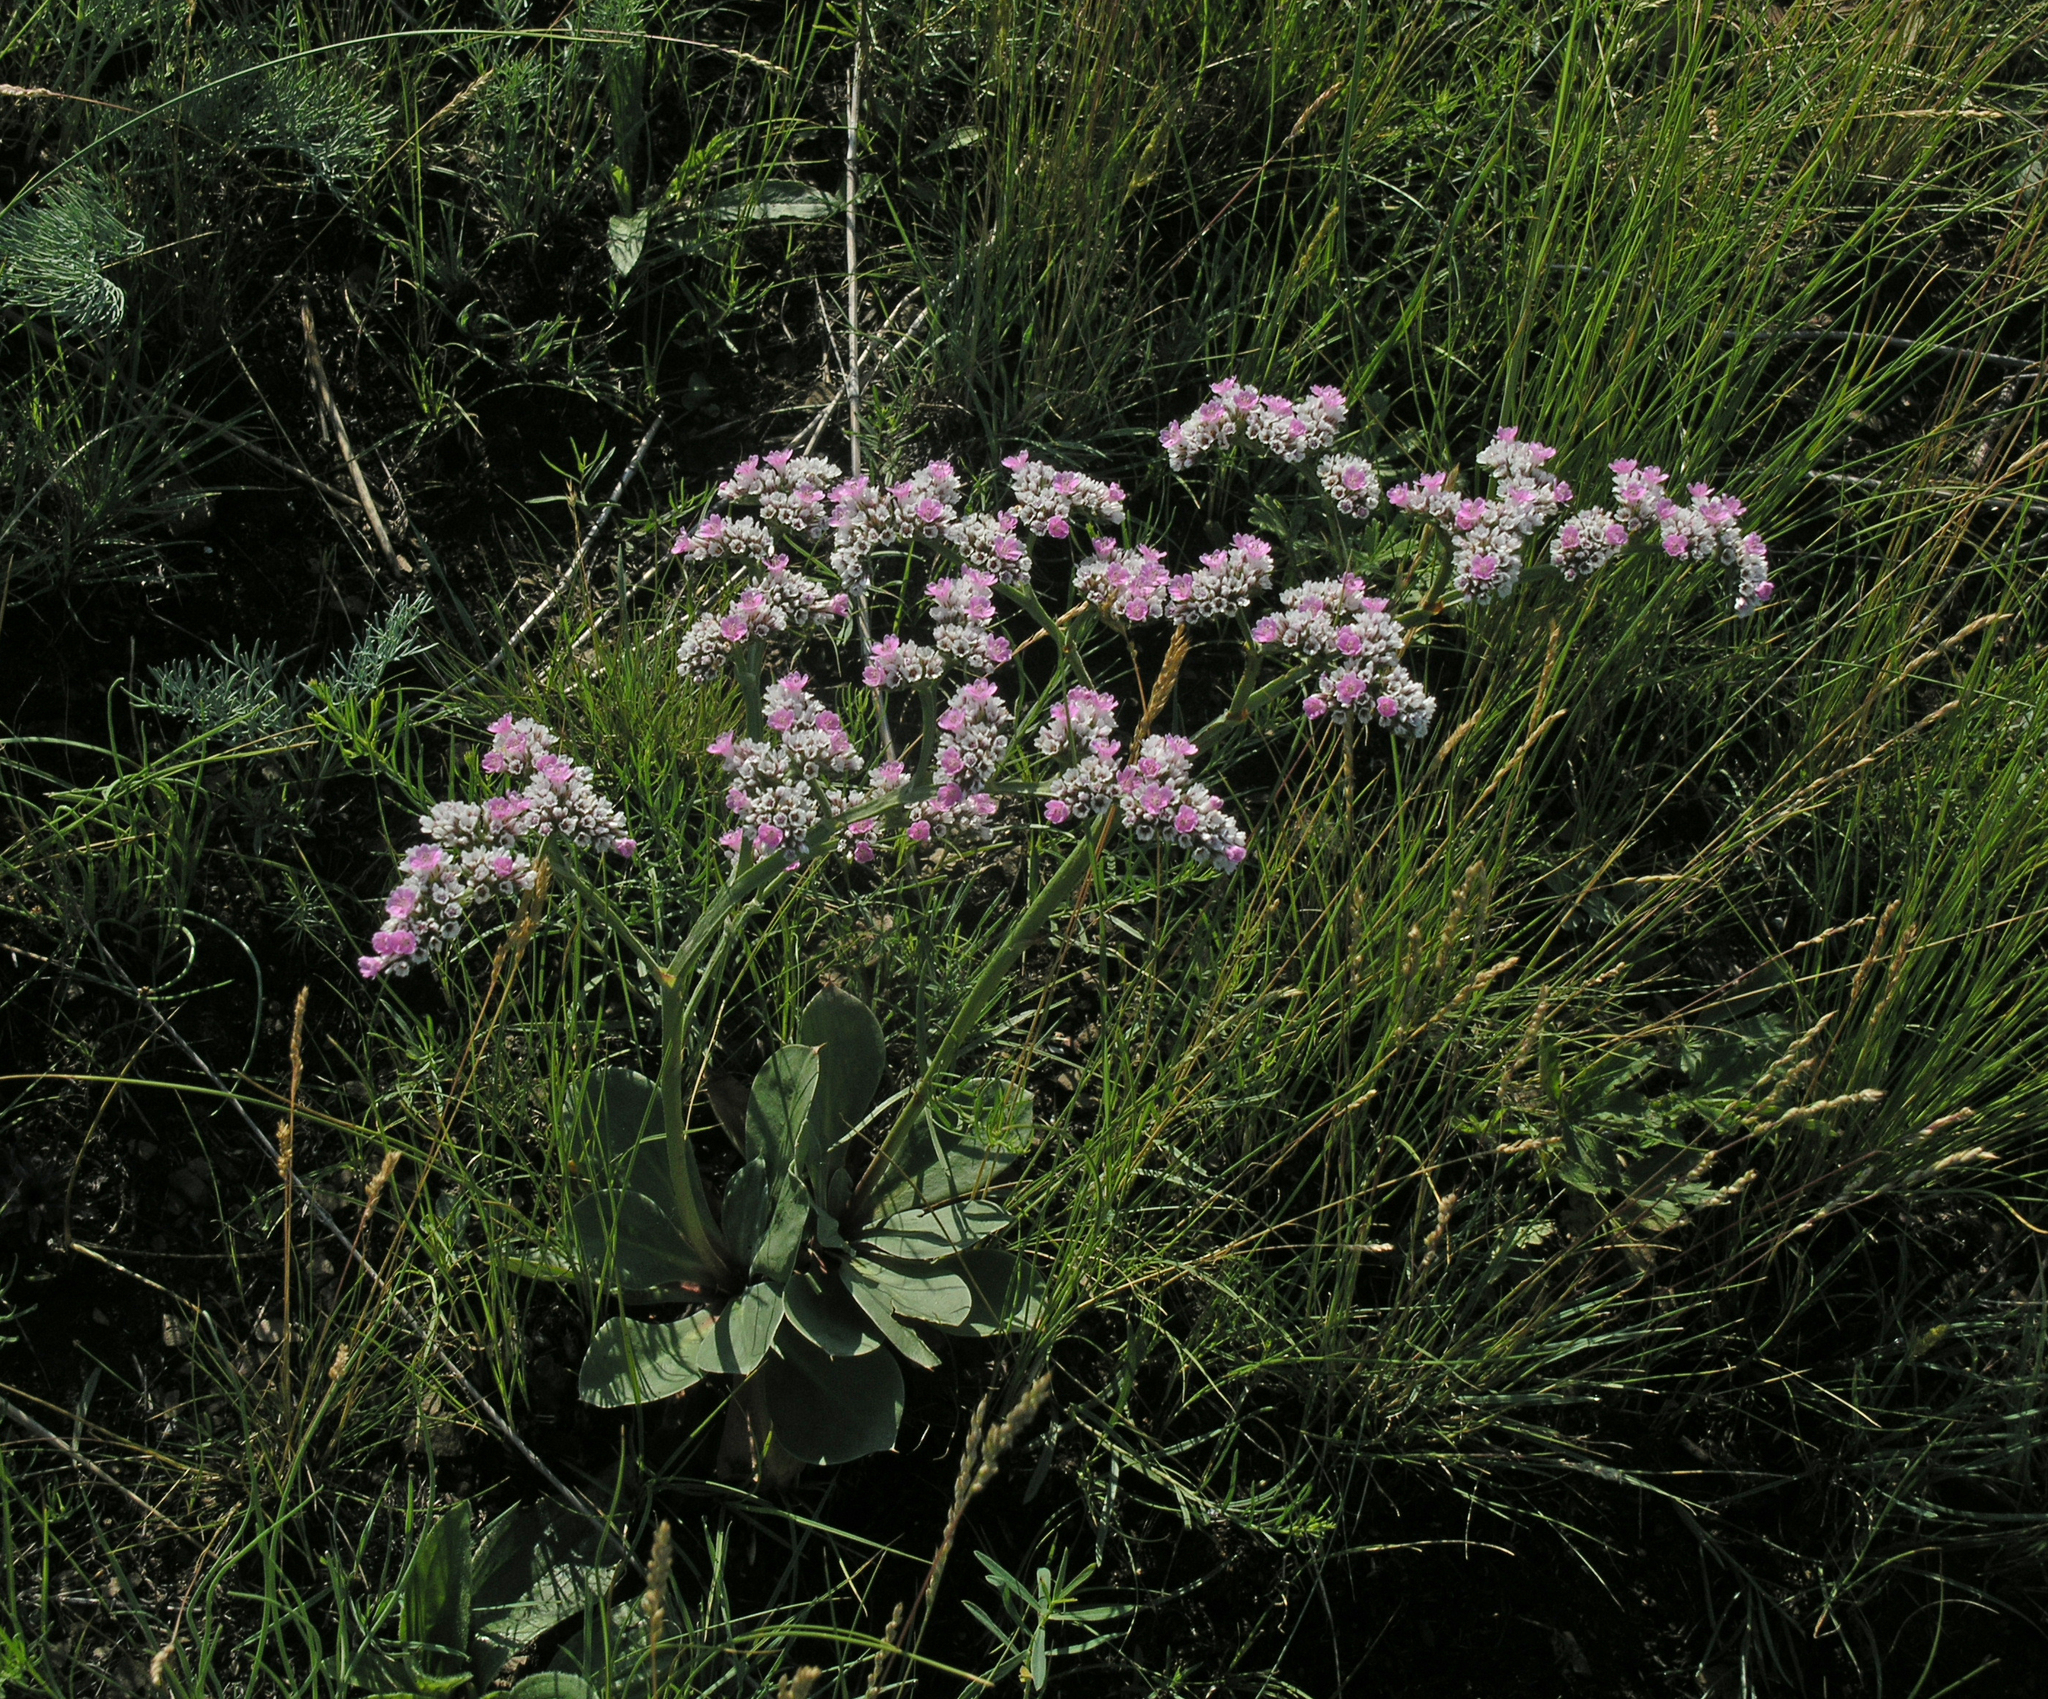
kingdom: Plantae
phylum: Tracheophyta
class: Magnoliopsida
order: Caryophyllales
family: Plumbaginaceae
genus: Goniolimon
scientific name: Goniolimon speciosum
